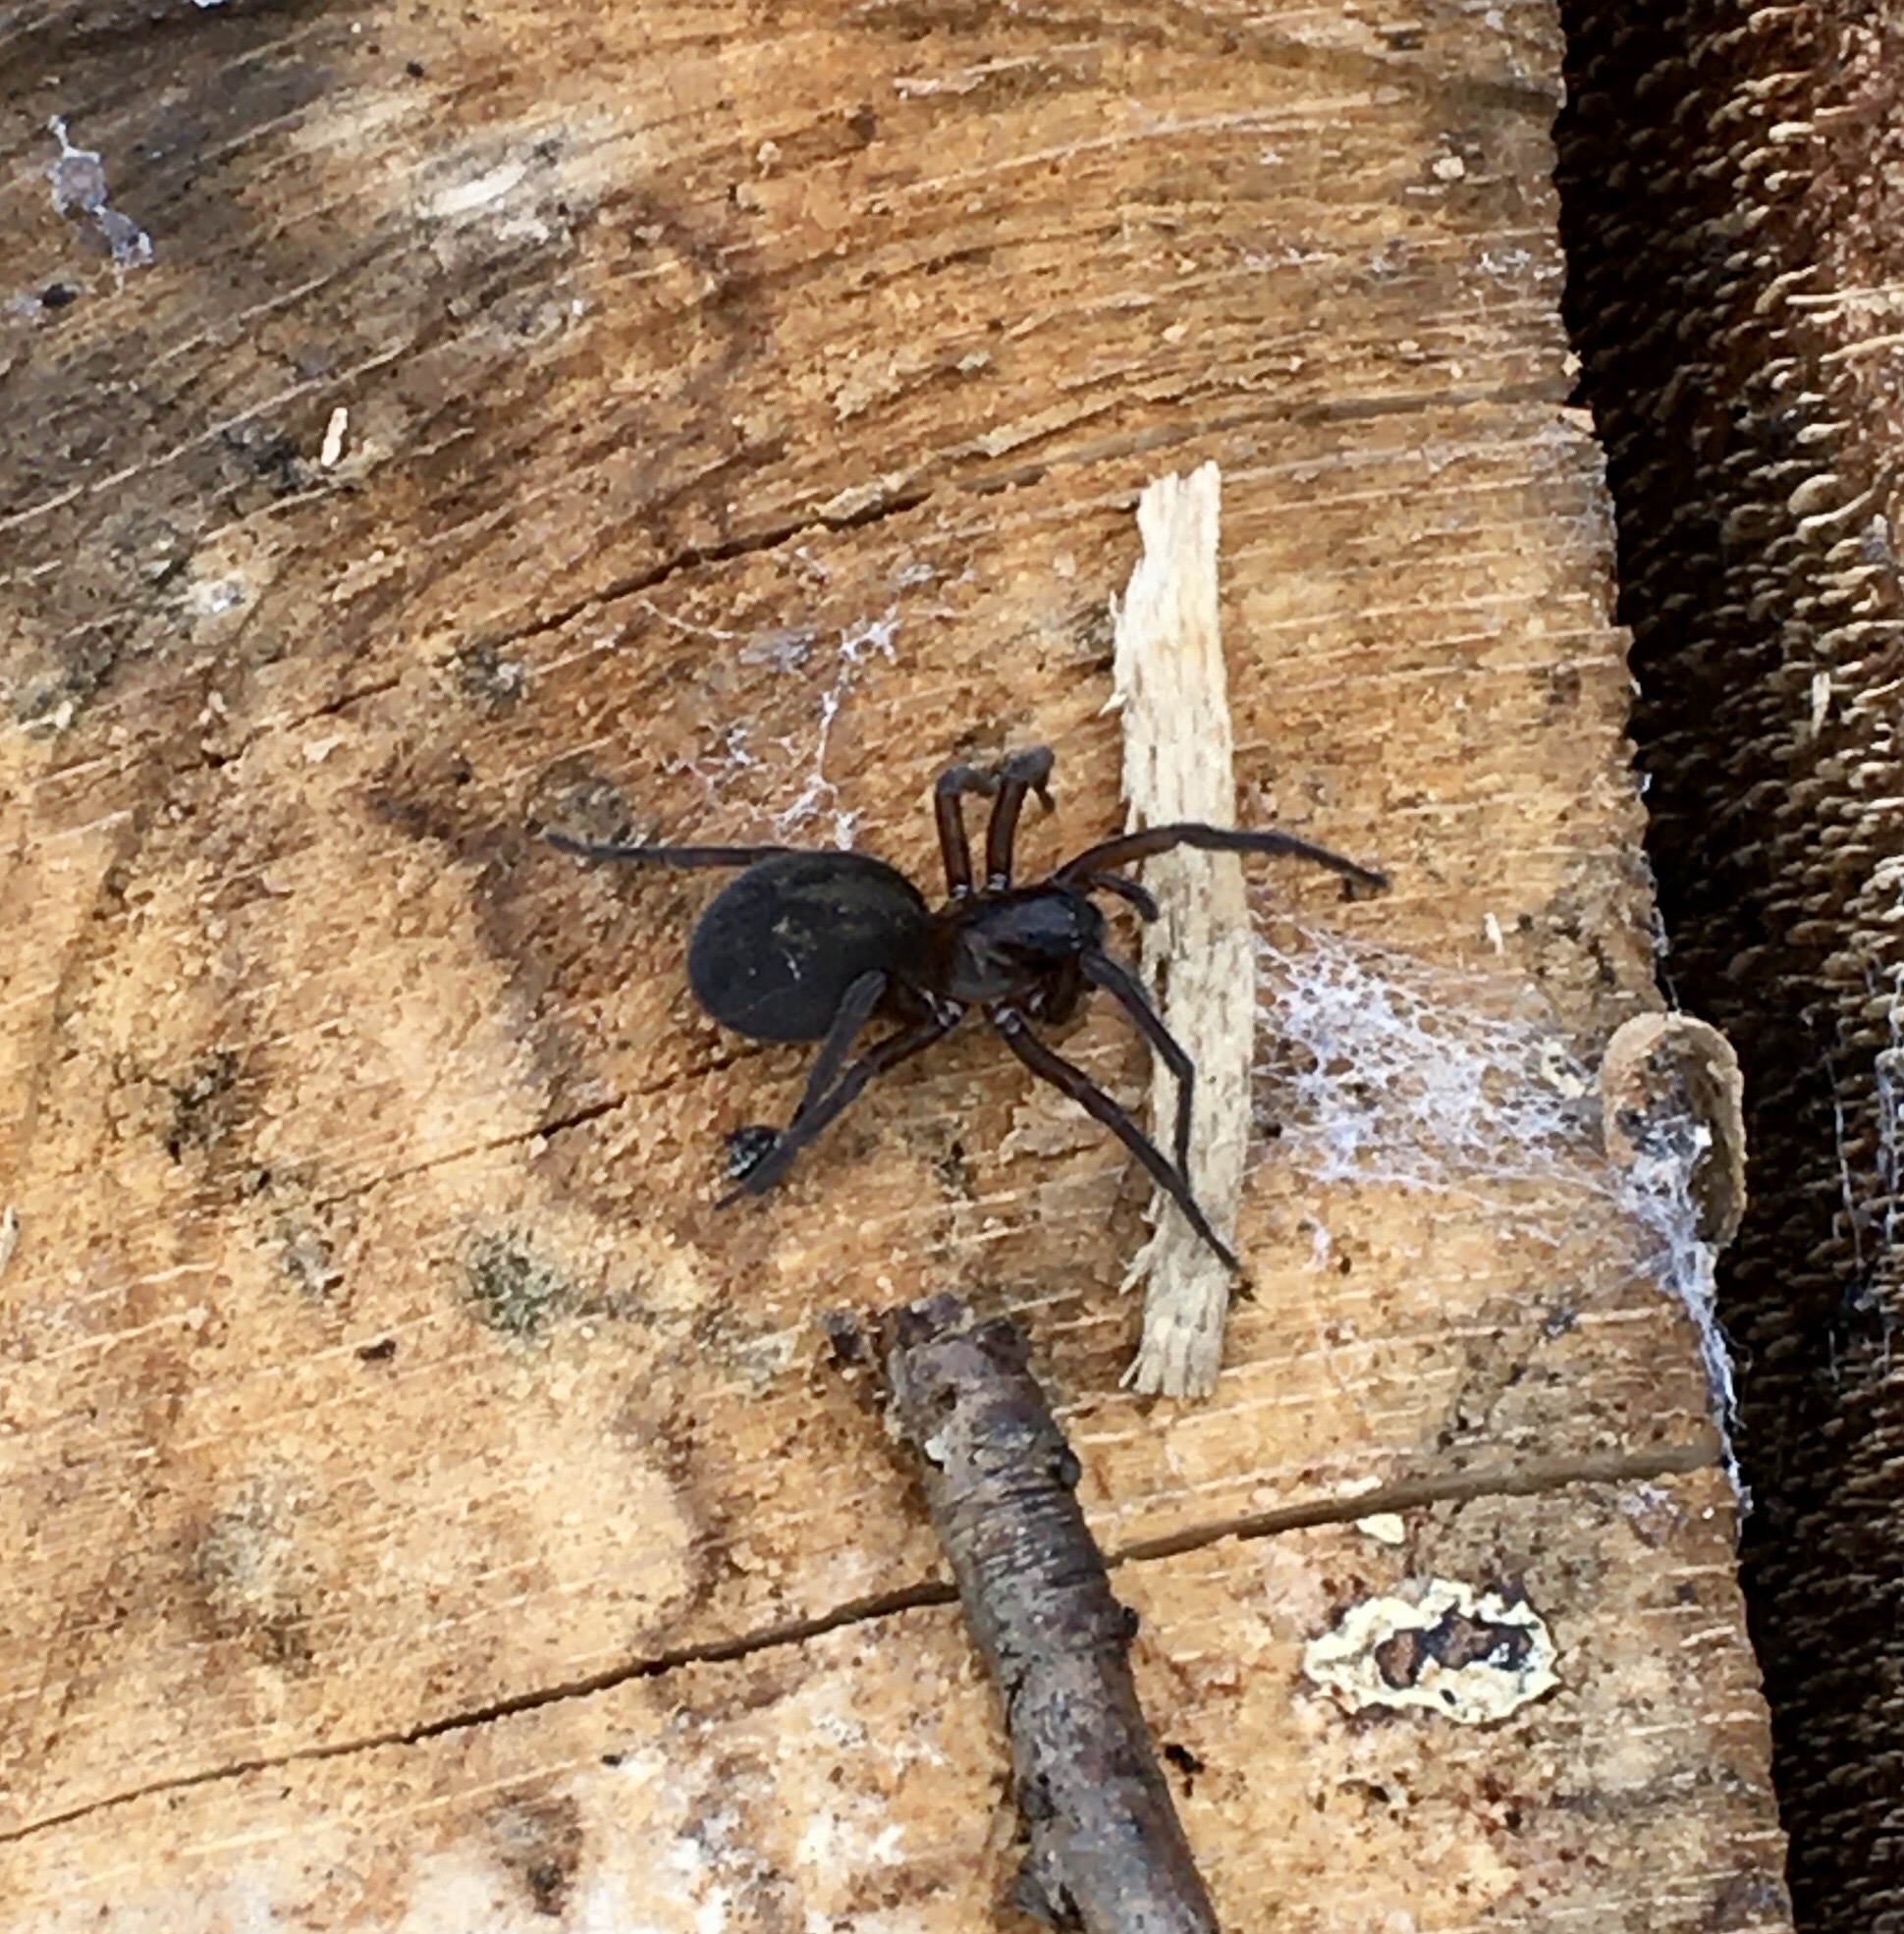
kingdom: Animalia
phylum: Arthropoda
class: Arachnida
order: Araneae
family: Amaurobiidae
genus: Amaurobius
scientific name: Amaurobius ferox
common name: Black laceweaver
